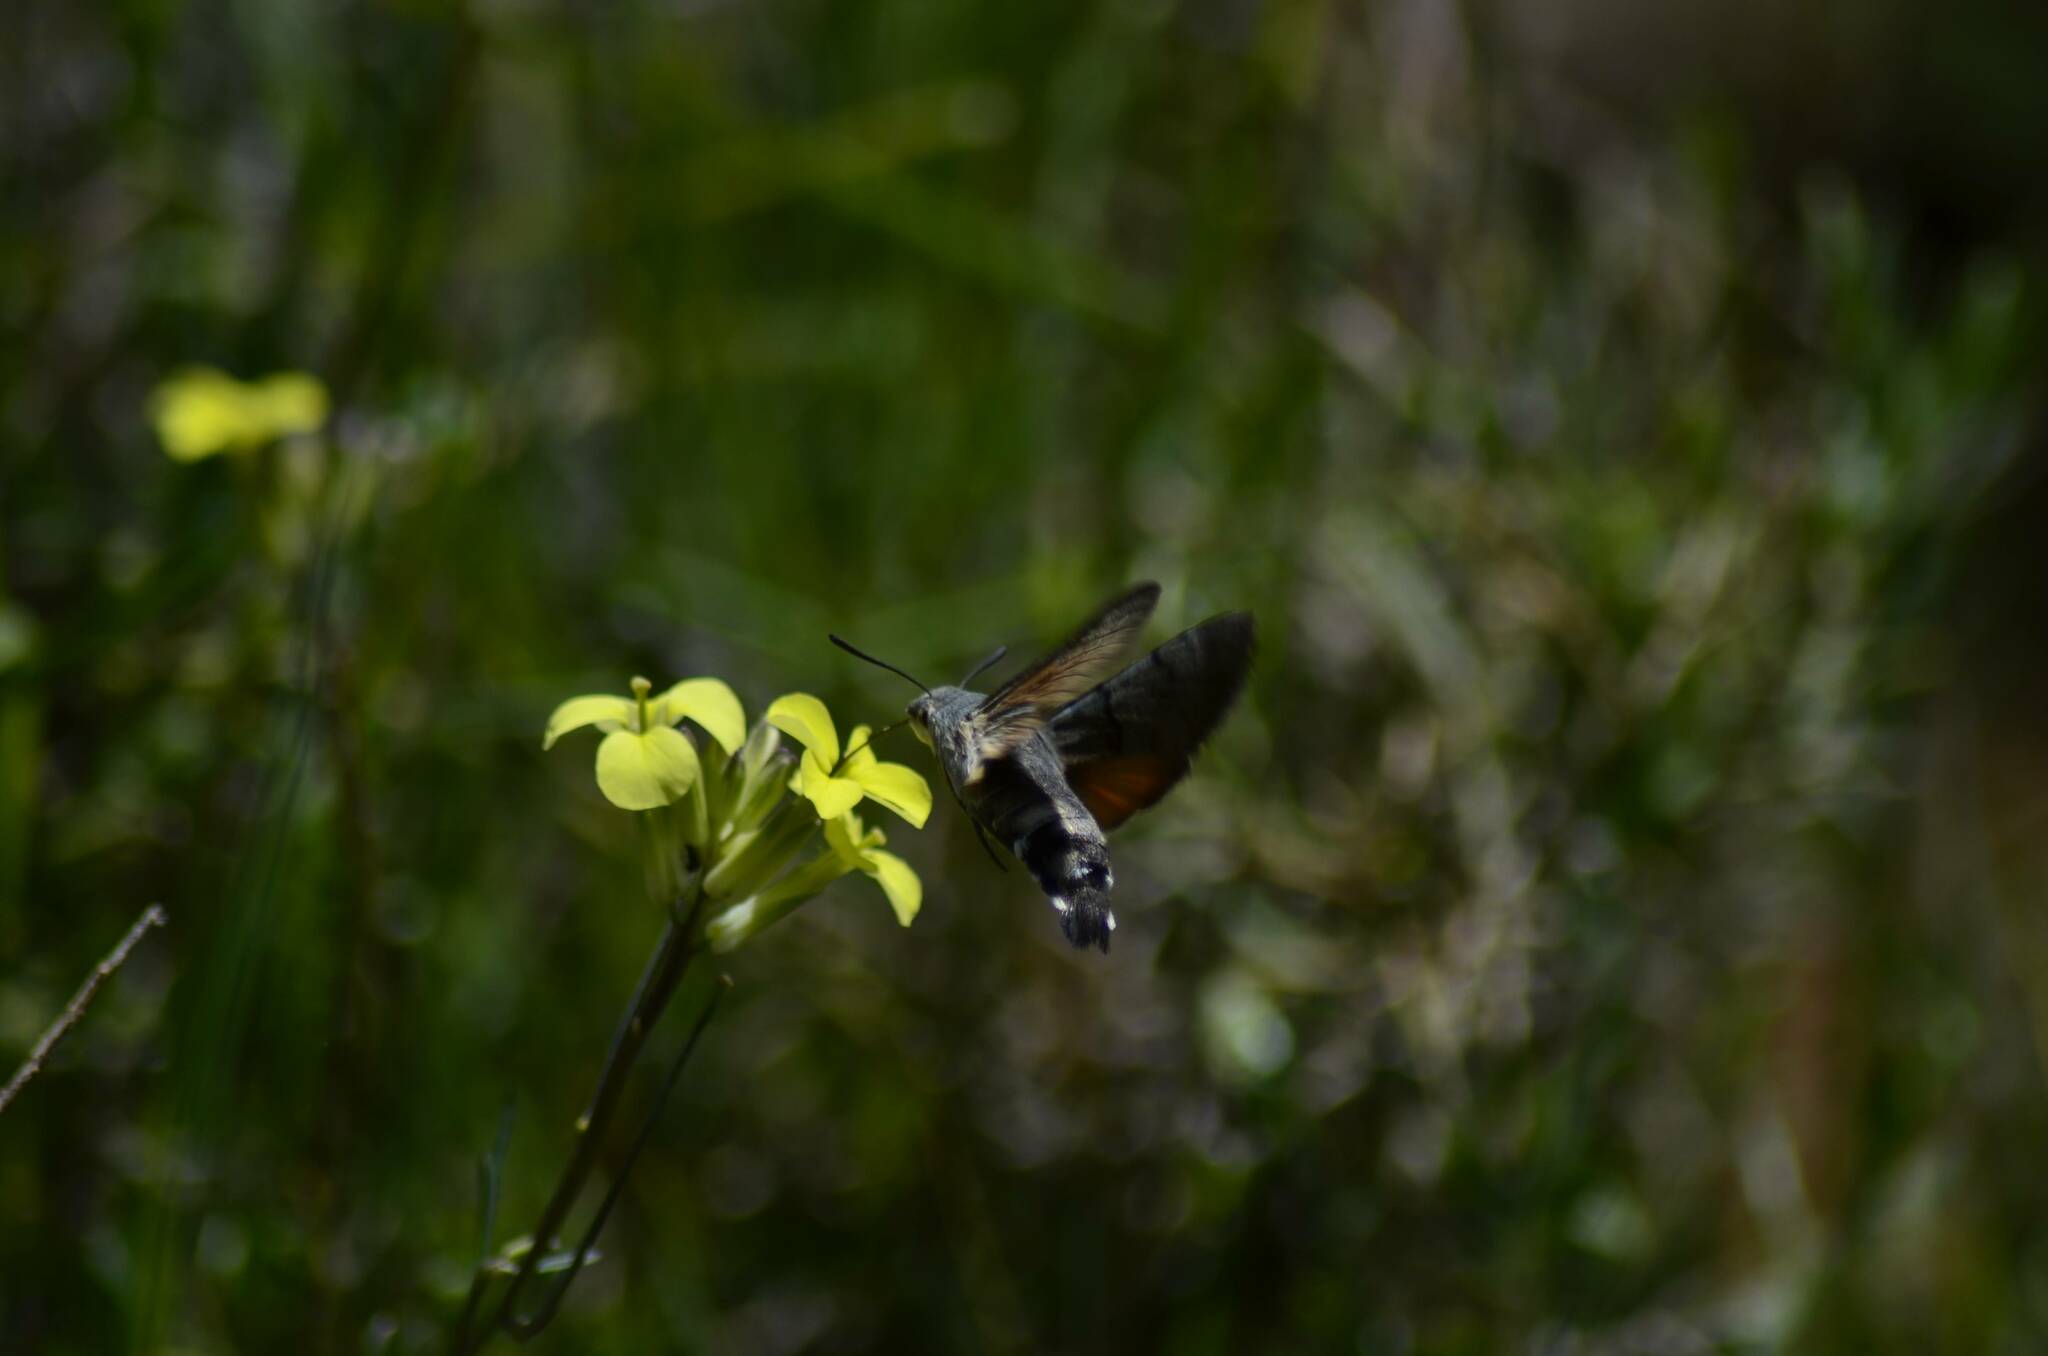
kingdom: Animalia
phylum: Arthropoda
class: Insecta
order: Lepidoptera
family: Sphingidae
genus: Macroglossum
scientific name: Macroglossum stellatarum
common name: Humming-bird hawk-moth
